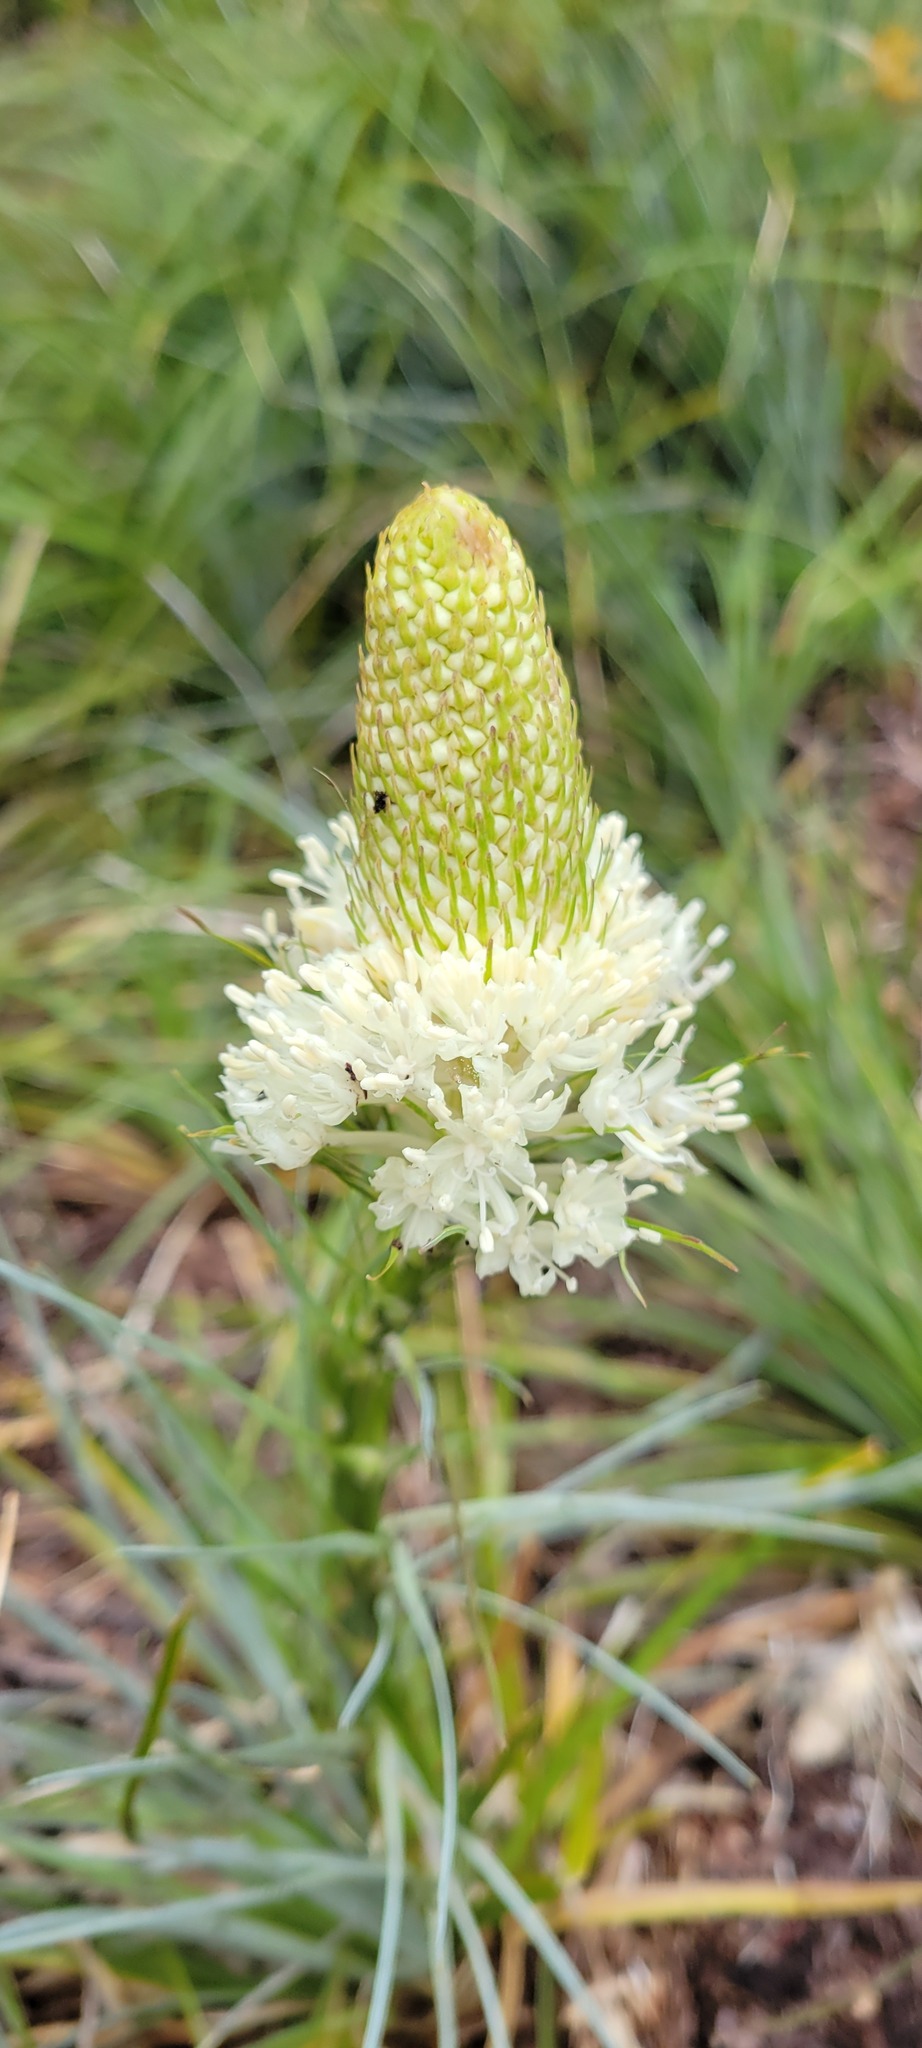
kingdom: Plantae
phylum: Tracheophyta
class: Liliopsida
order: Liliales
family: Melanthiaceae
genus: Xerophyllum
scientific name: Xerophyllum tenax
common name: Bear-grass
